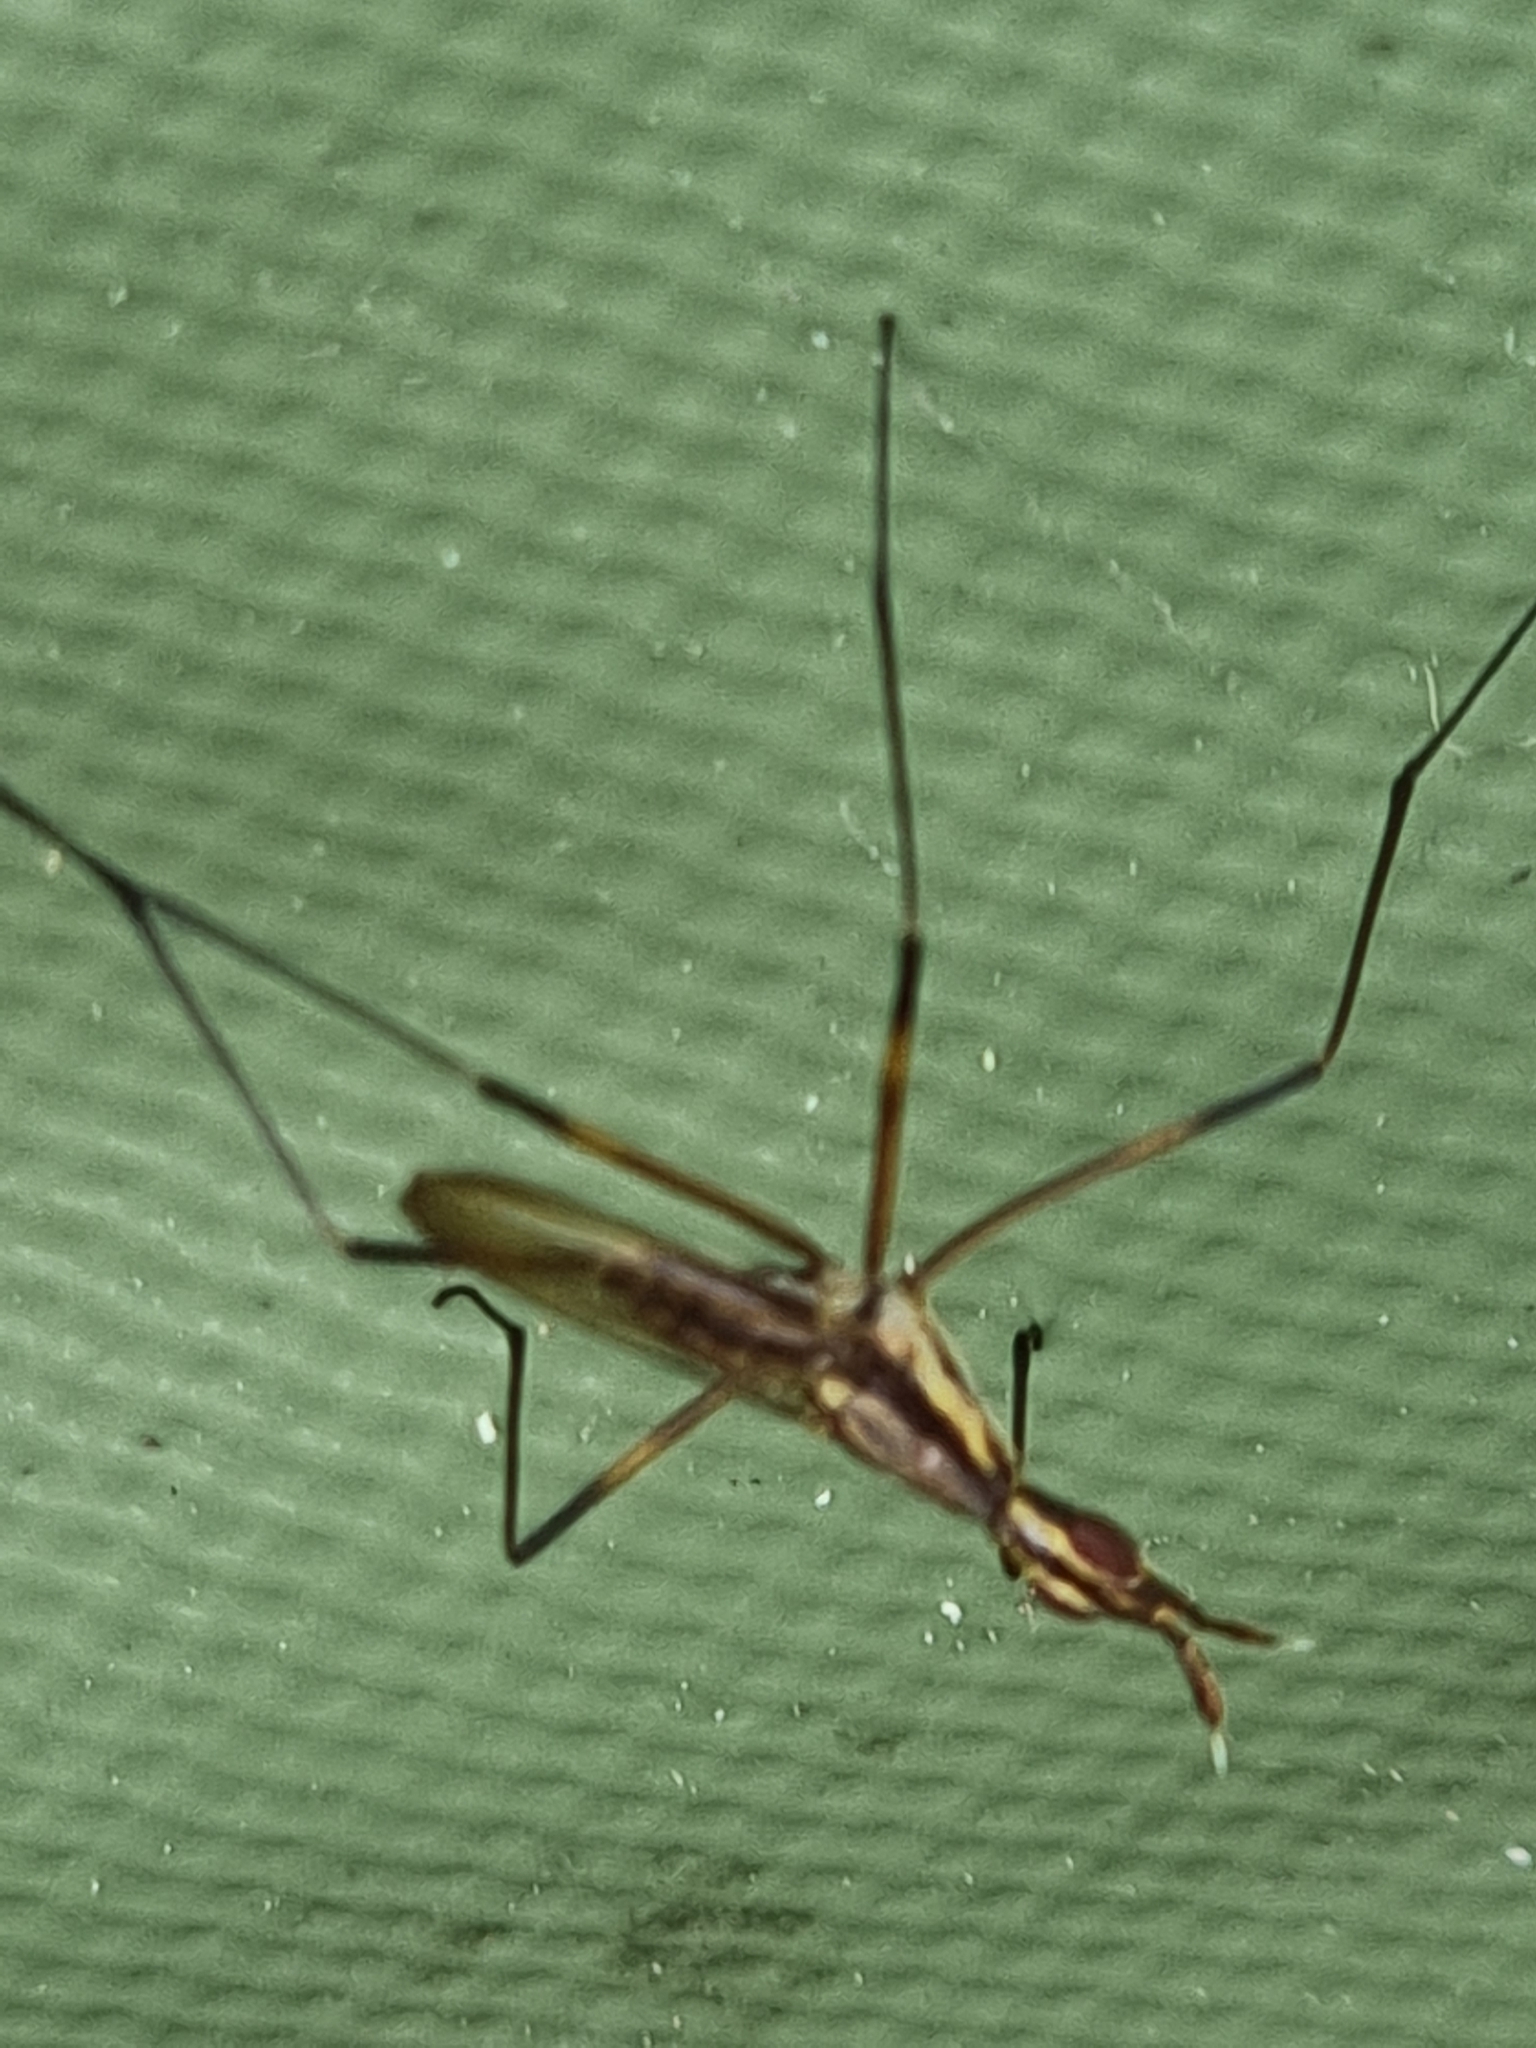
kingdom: Animalia
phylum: Arthropoda
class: Insecta
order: Diptera
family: Neriidae
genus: Derocephalus
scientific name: Derocephalus angusticollis
